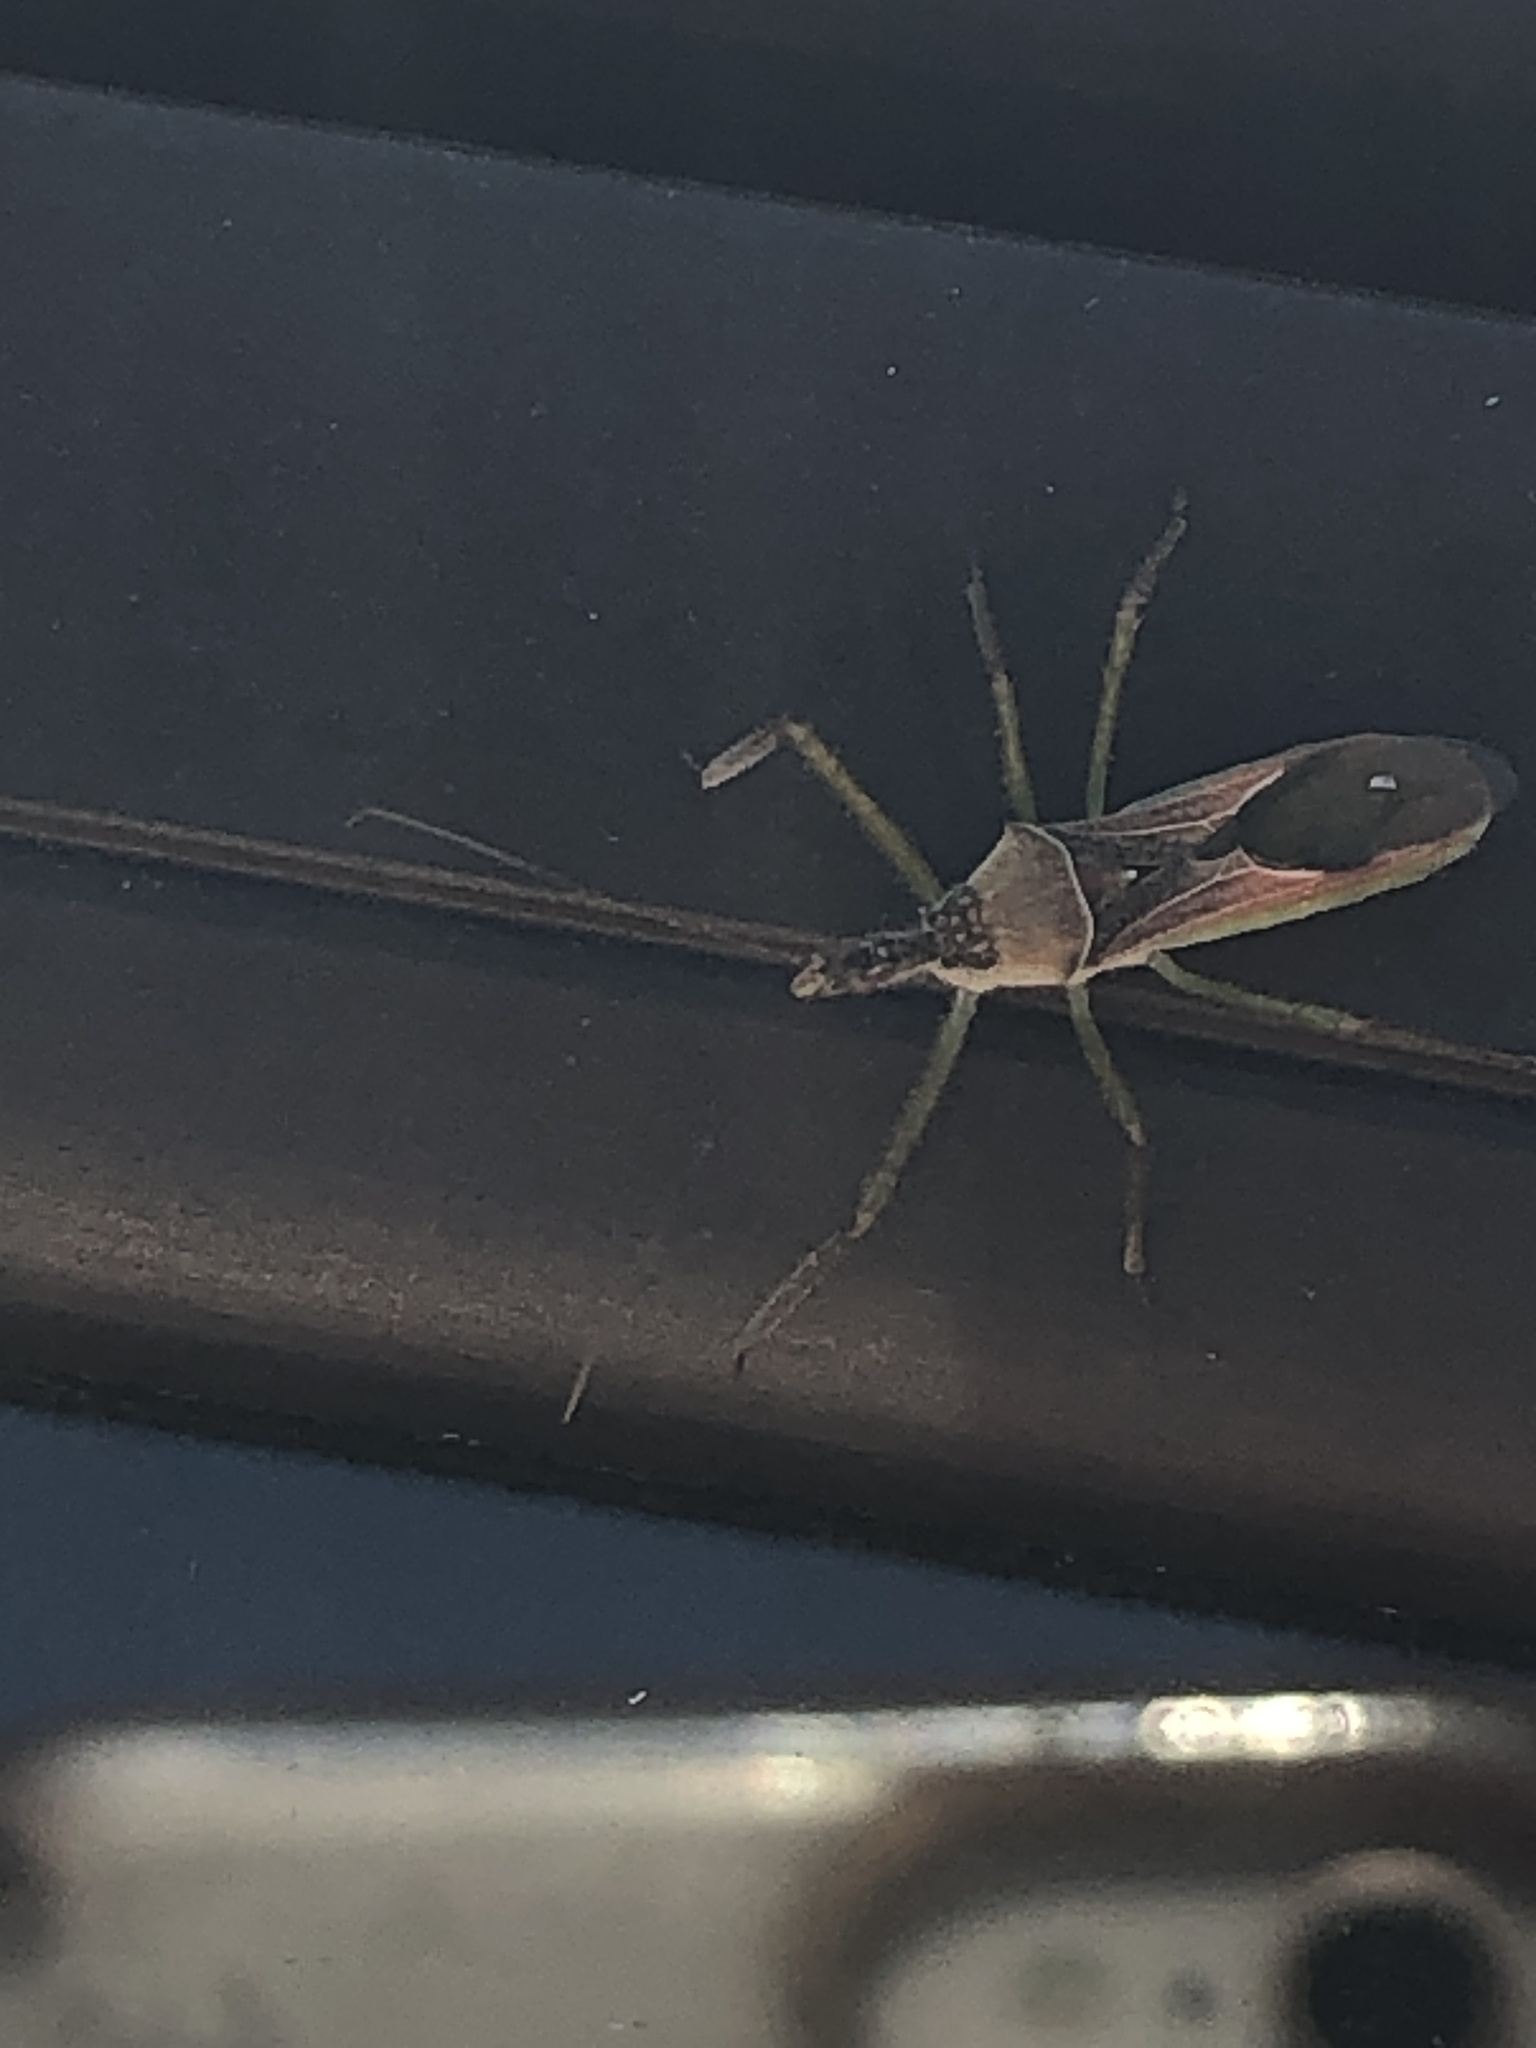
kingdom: Animalia
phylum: Arthropoda
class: Insecta
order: Hemiptera
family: Reduviidae
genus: Zelus
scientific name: Zelus renardii
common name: Assassin bug
